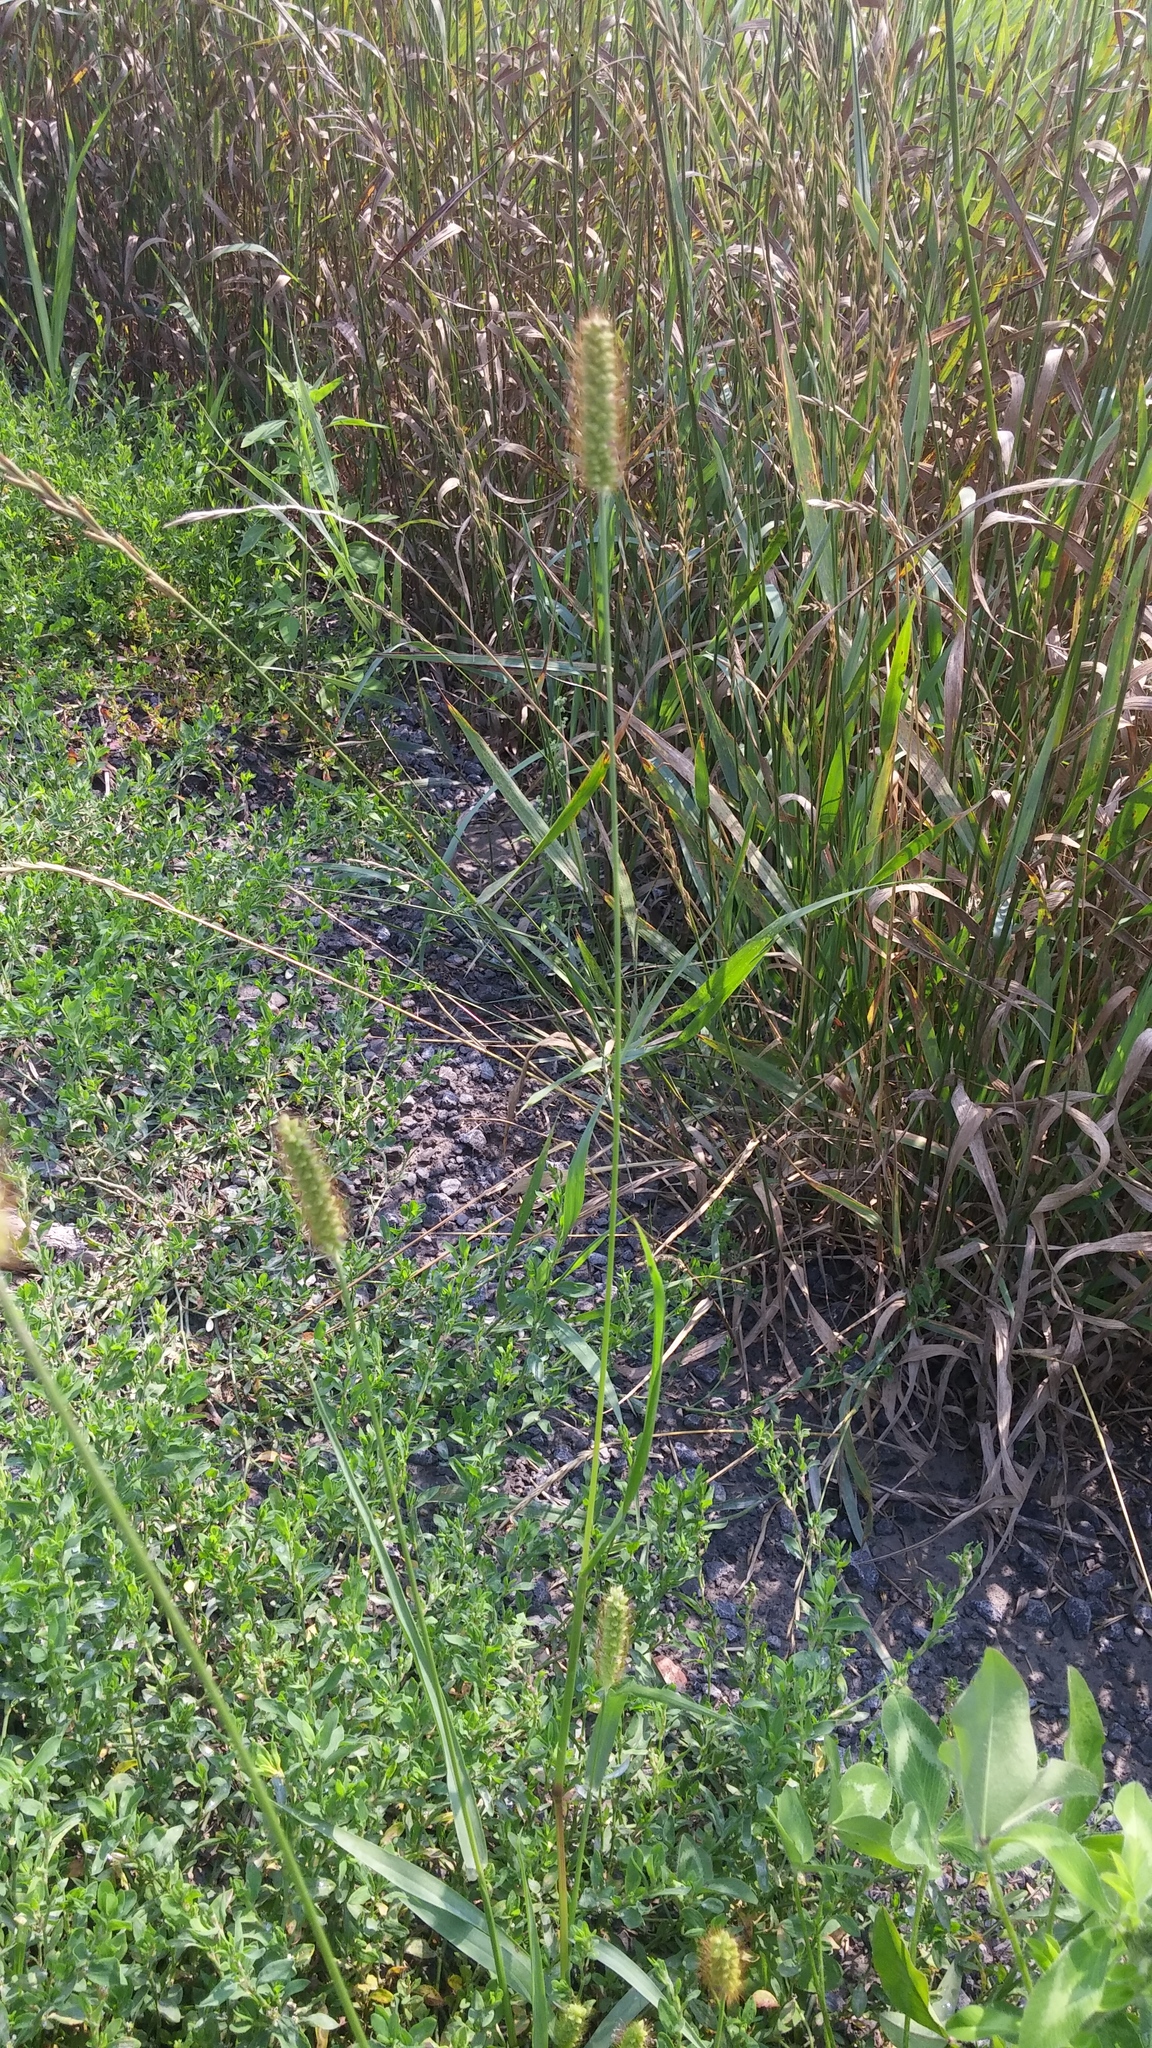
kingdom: Plantae
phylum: Tracheophyta
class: Liliopsida
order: Poales
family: Poaceae
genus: Setaria
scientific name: Setaria pumila
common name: Yellow bristle-grass
